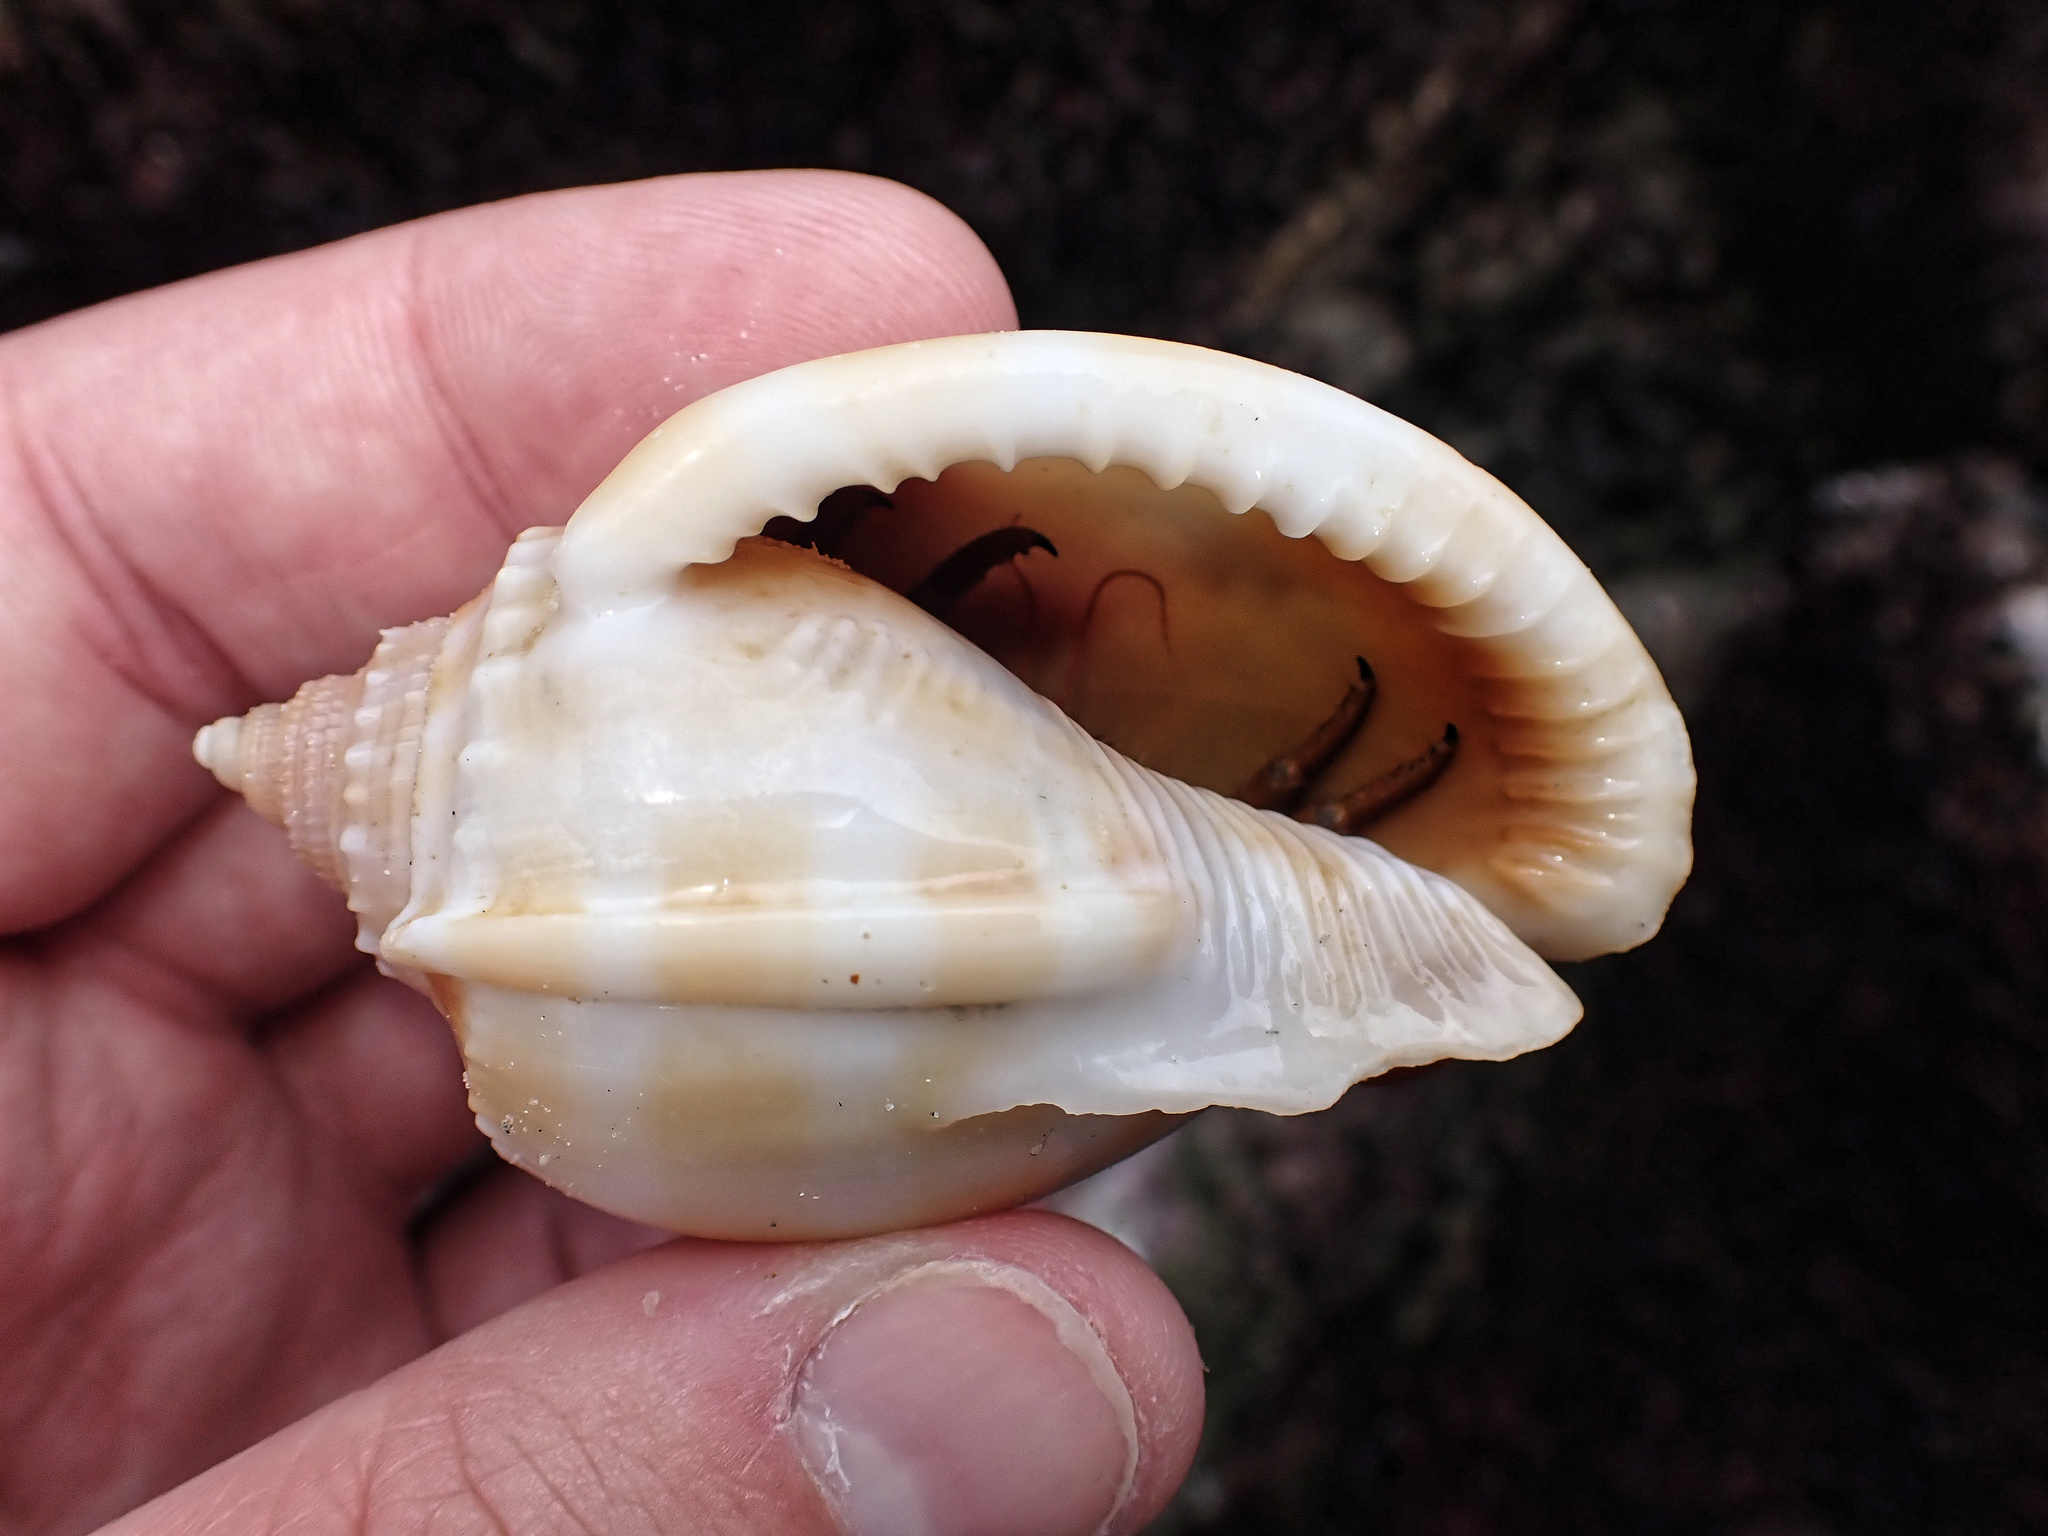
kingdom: Animalia
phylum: Mollusca
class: Gastropoda
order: Littorinimorpha
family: Cassidae
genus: Phalium
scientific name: Phalium bandatum
